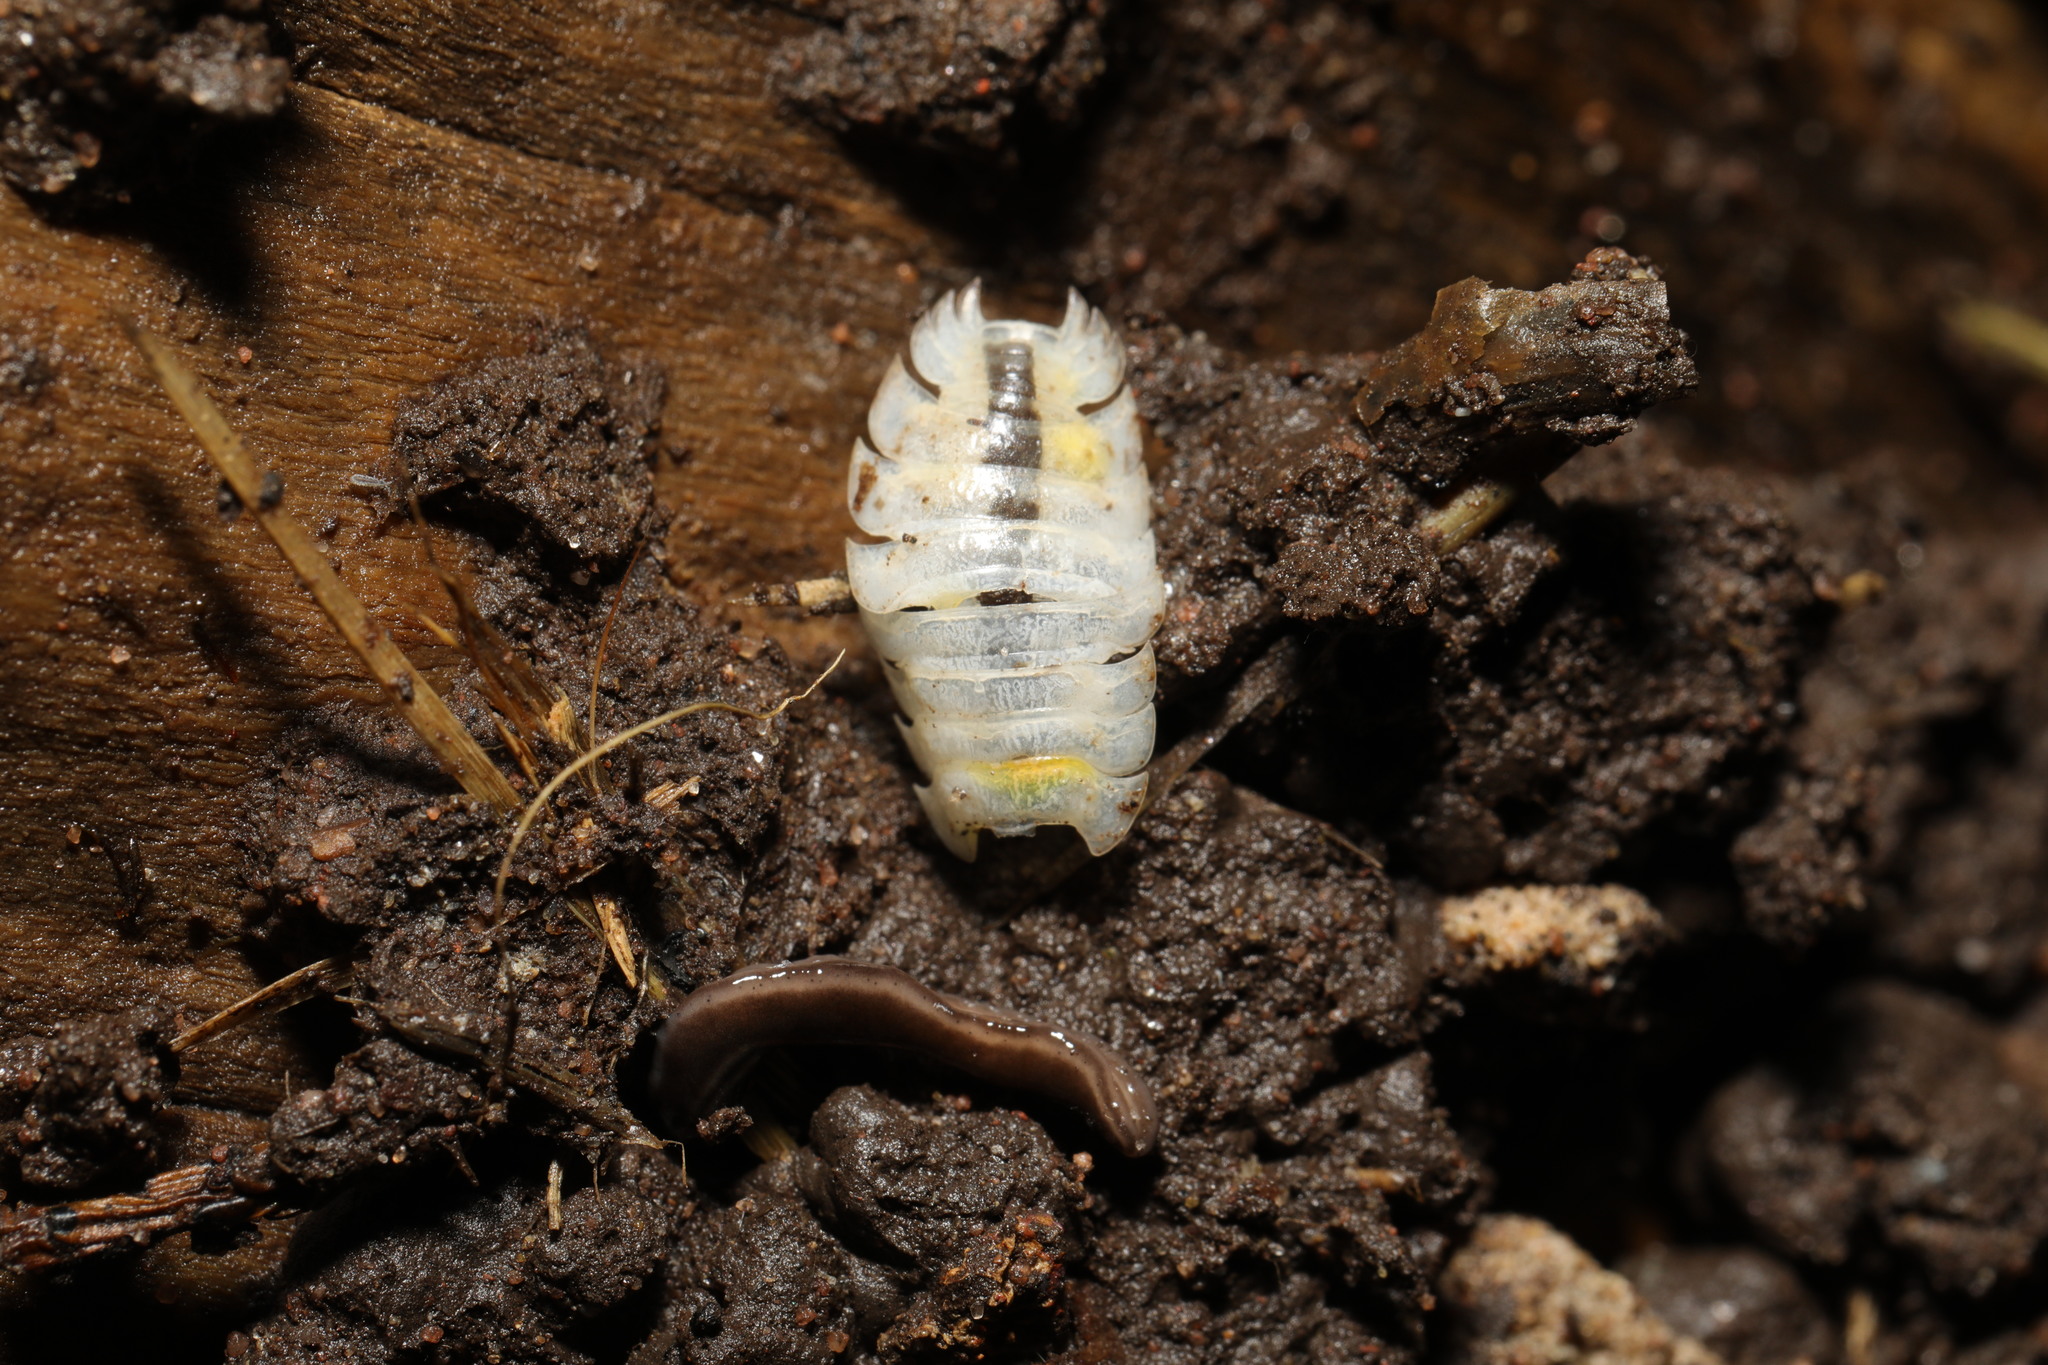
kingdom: Animalia
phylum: Arthropoda
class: Malacostraca
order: Isopoda
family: Oniscidae
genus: Oniscus
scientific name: Oniscus asellus
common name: Common shiny woodlouse
